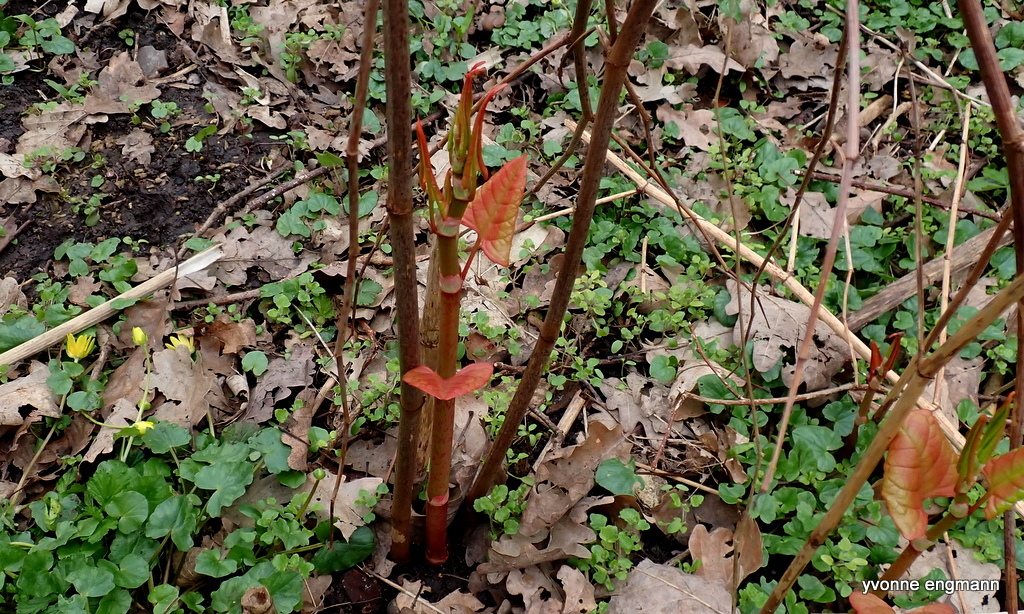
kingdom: Plantae
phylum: Tracheophyta
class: Magnoliopsida
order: Caryophyllales
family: Polygonaceae
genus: Reynoutria
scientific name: Reynoutria japonica
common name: Japanese knotweed
